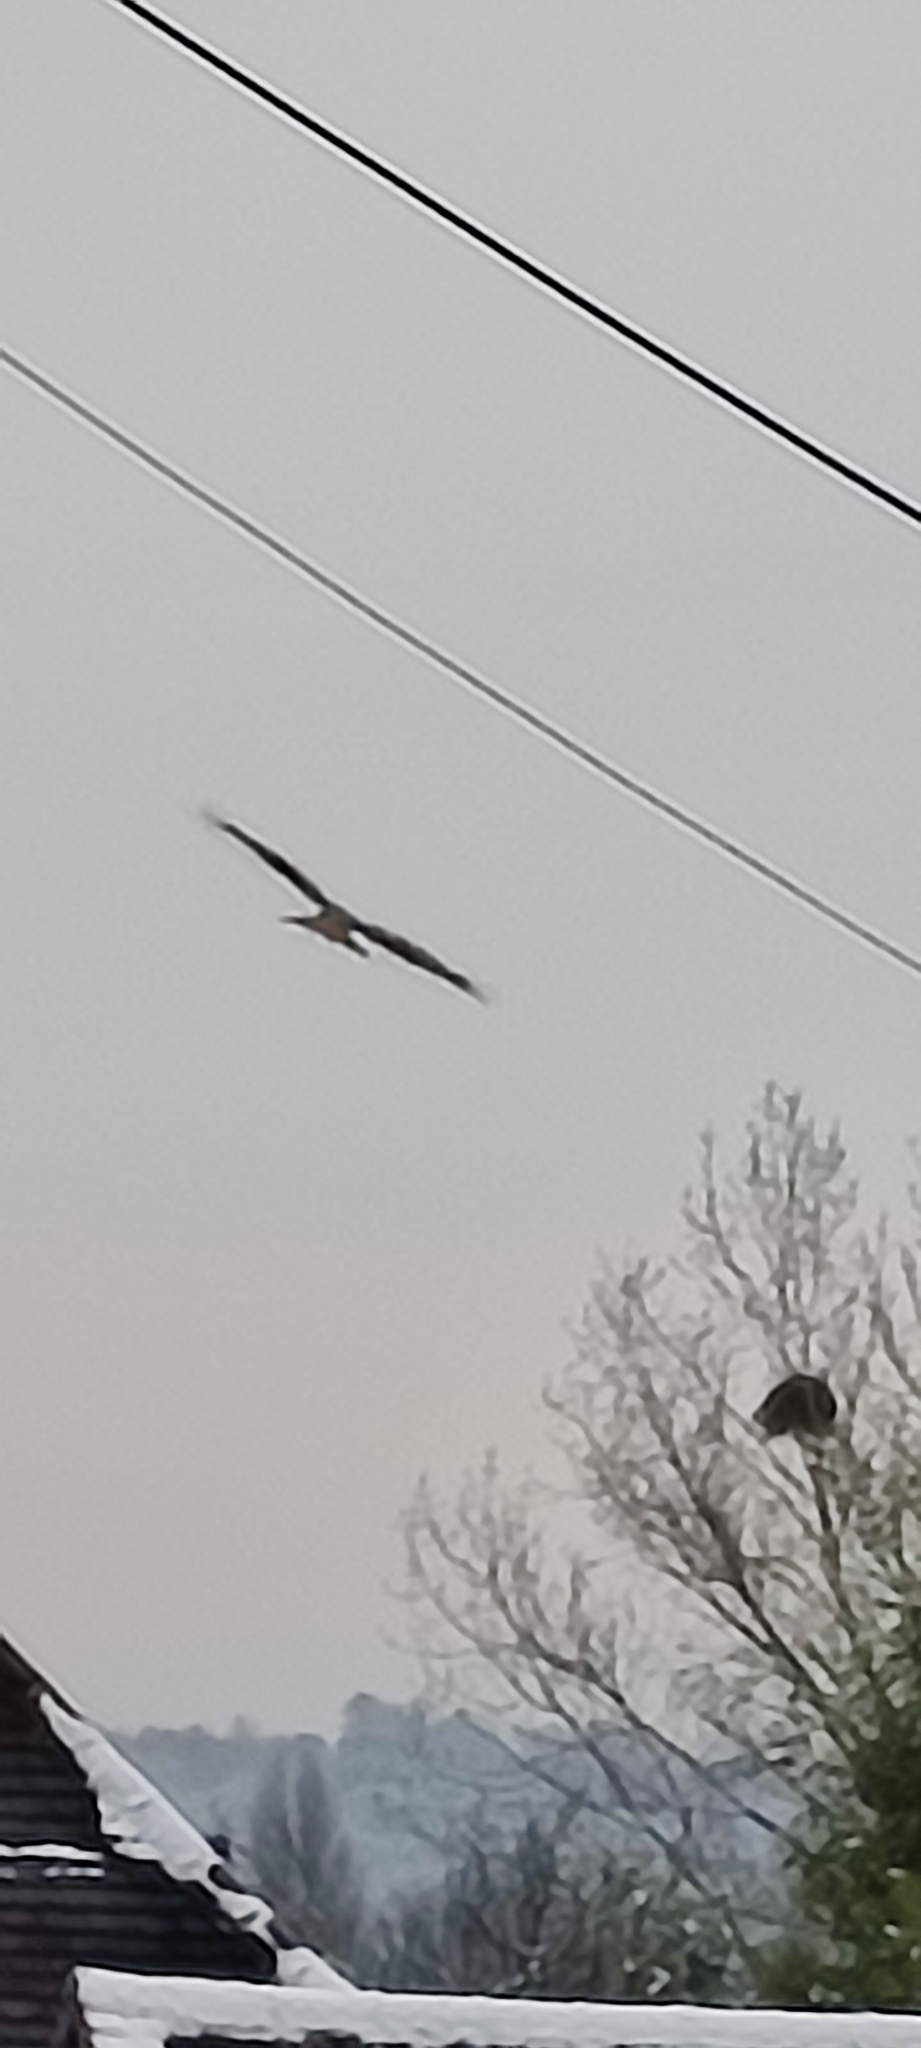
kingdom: Animalia
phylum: Chordata
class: Aves
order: Accipitriformes
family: Accipitridae
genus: Milvus
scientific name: Milvus milvus
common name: Red kite
